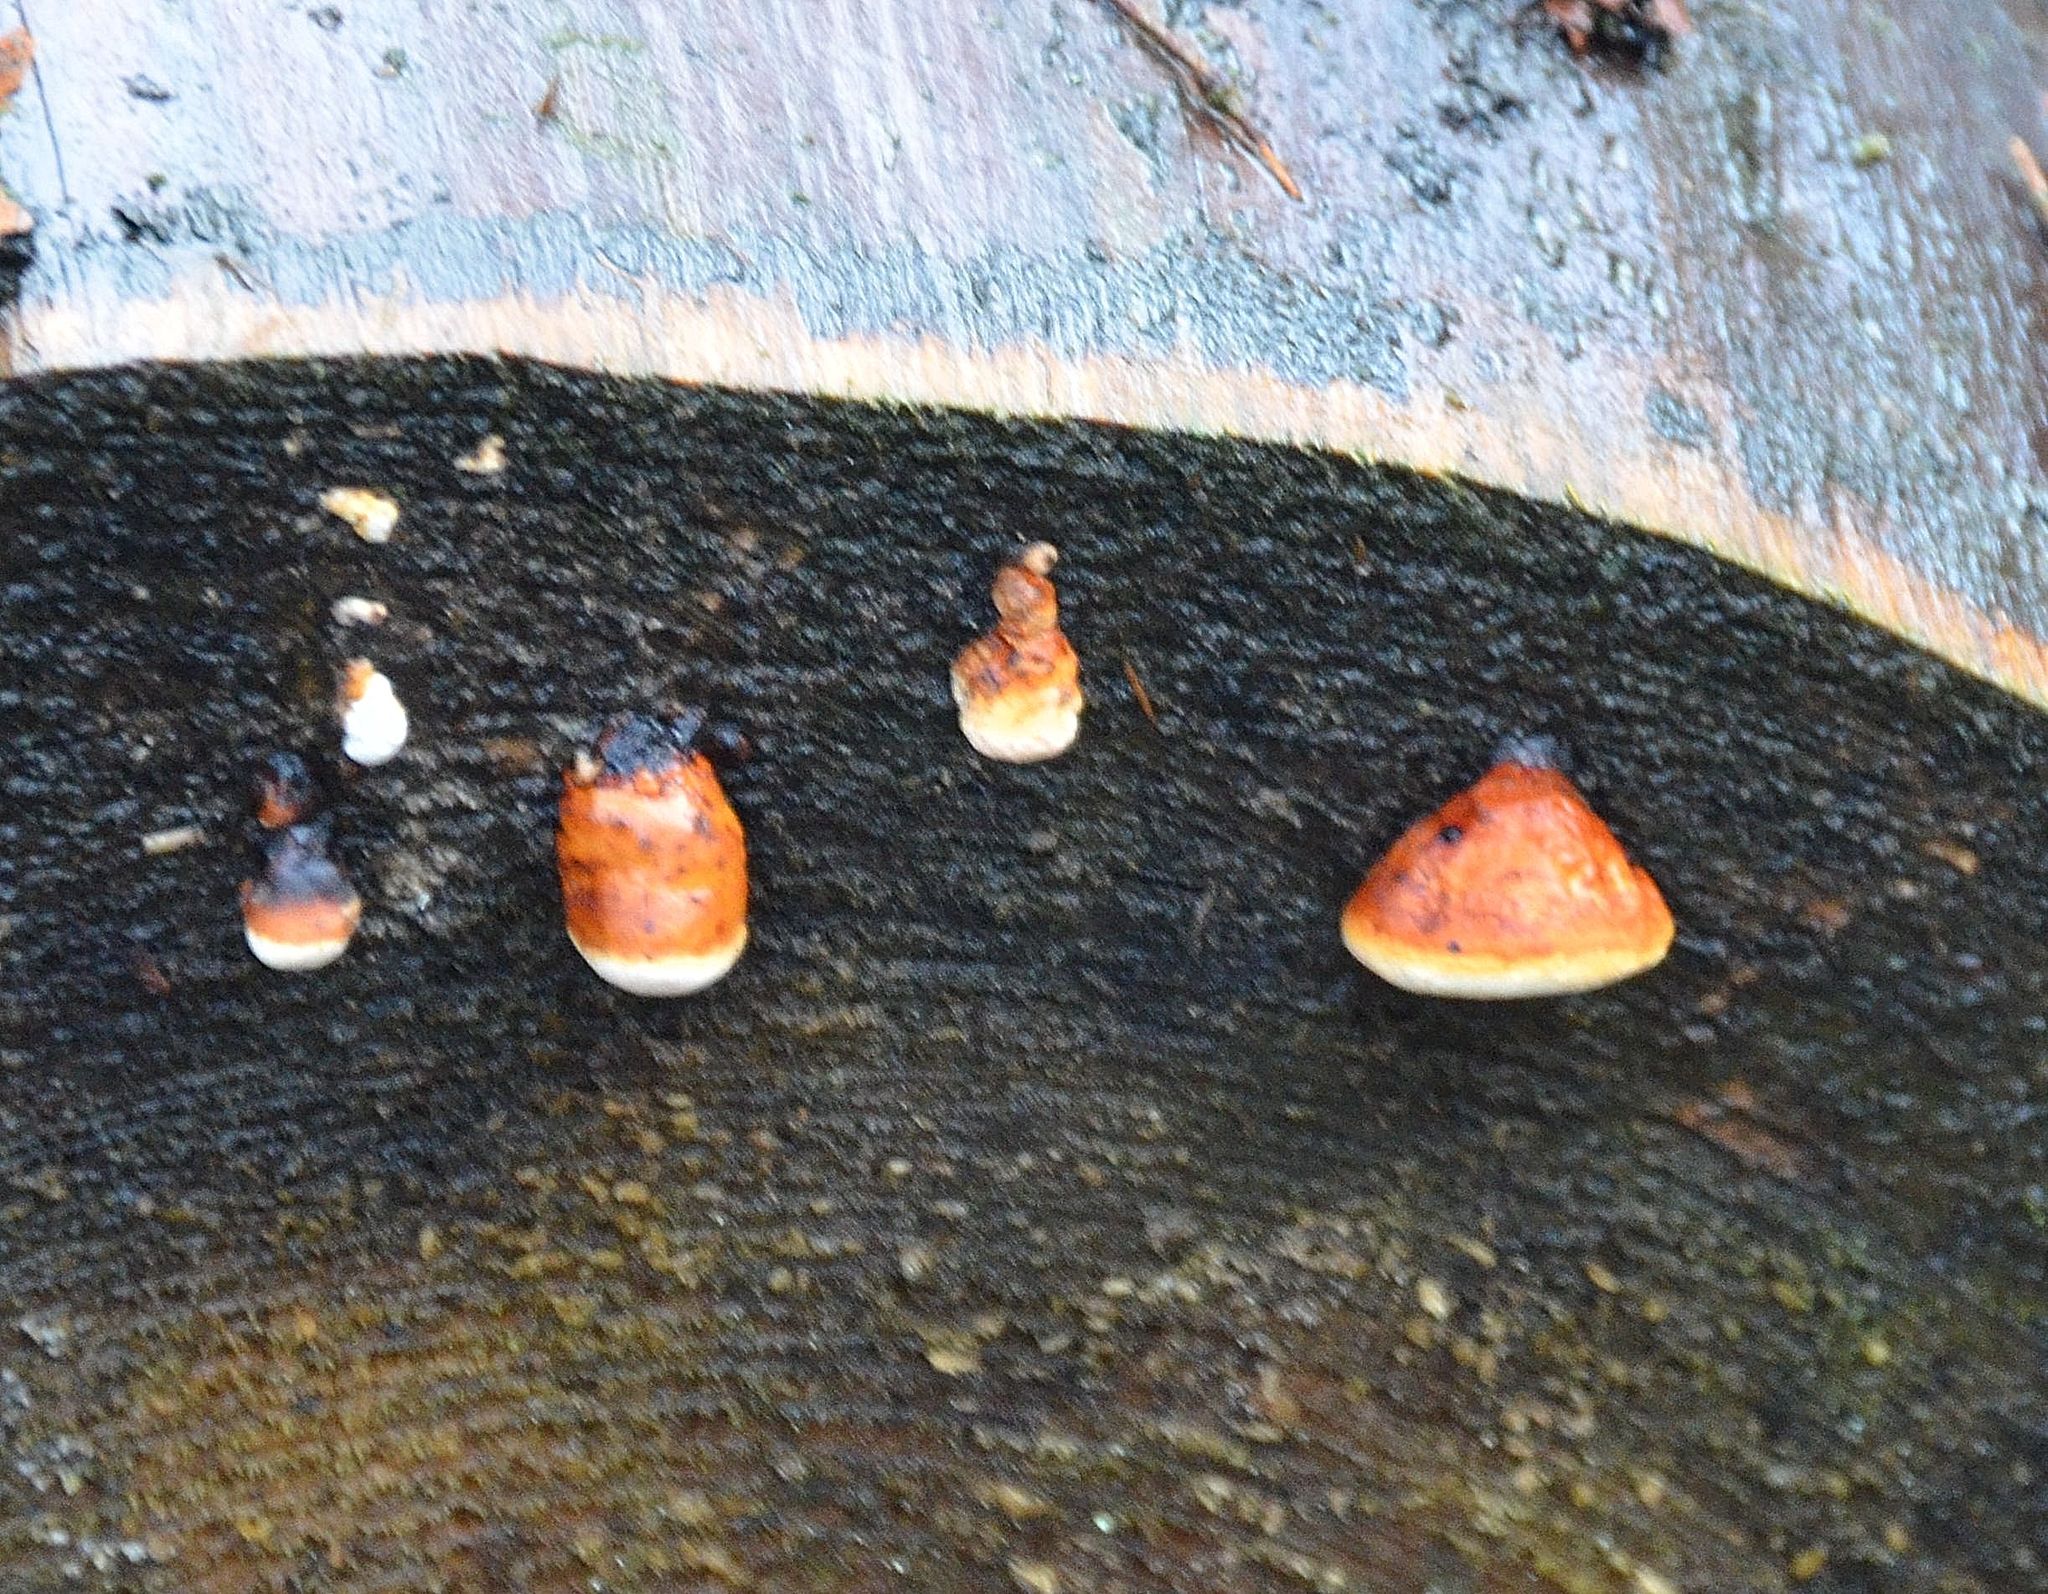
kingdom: Fungi
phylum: Basidiomycota
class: Agaricomycetes
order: Polyporales
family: Fomitopsidaceae
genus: Fomitopsis
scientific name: Fomitopsis pinicola
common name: Red-belted bracket
